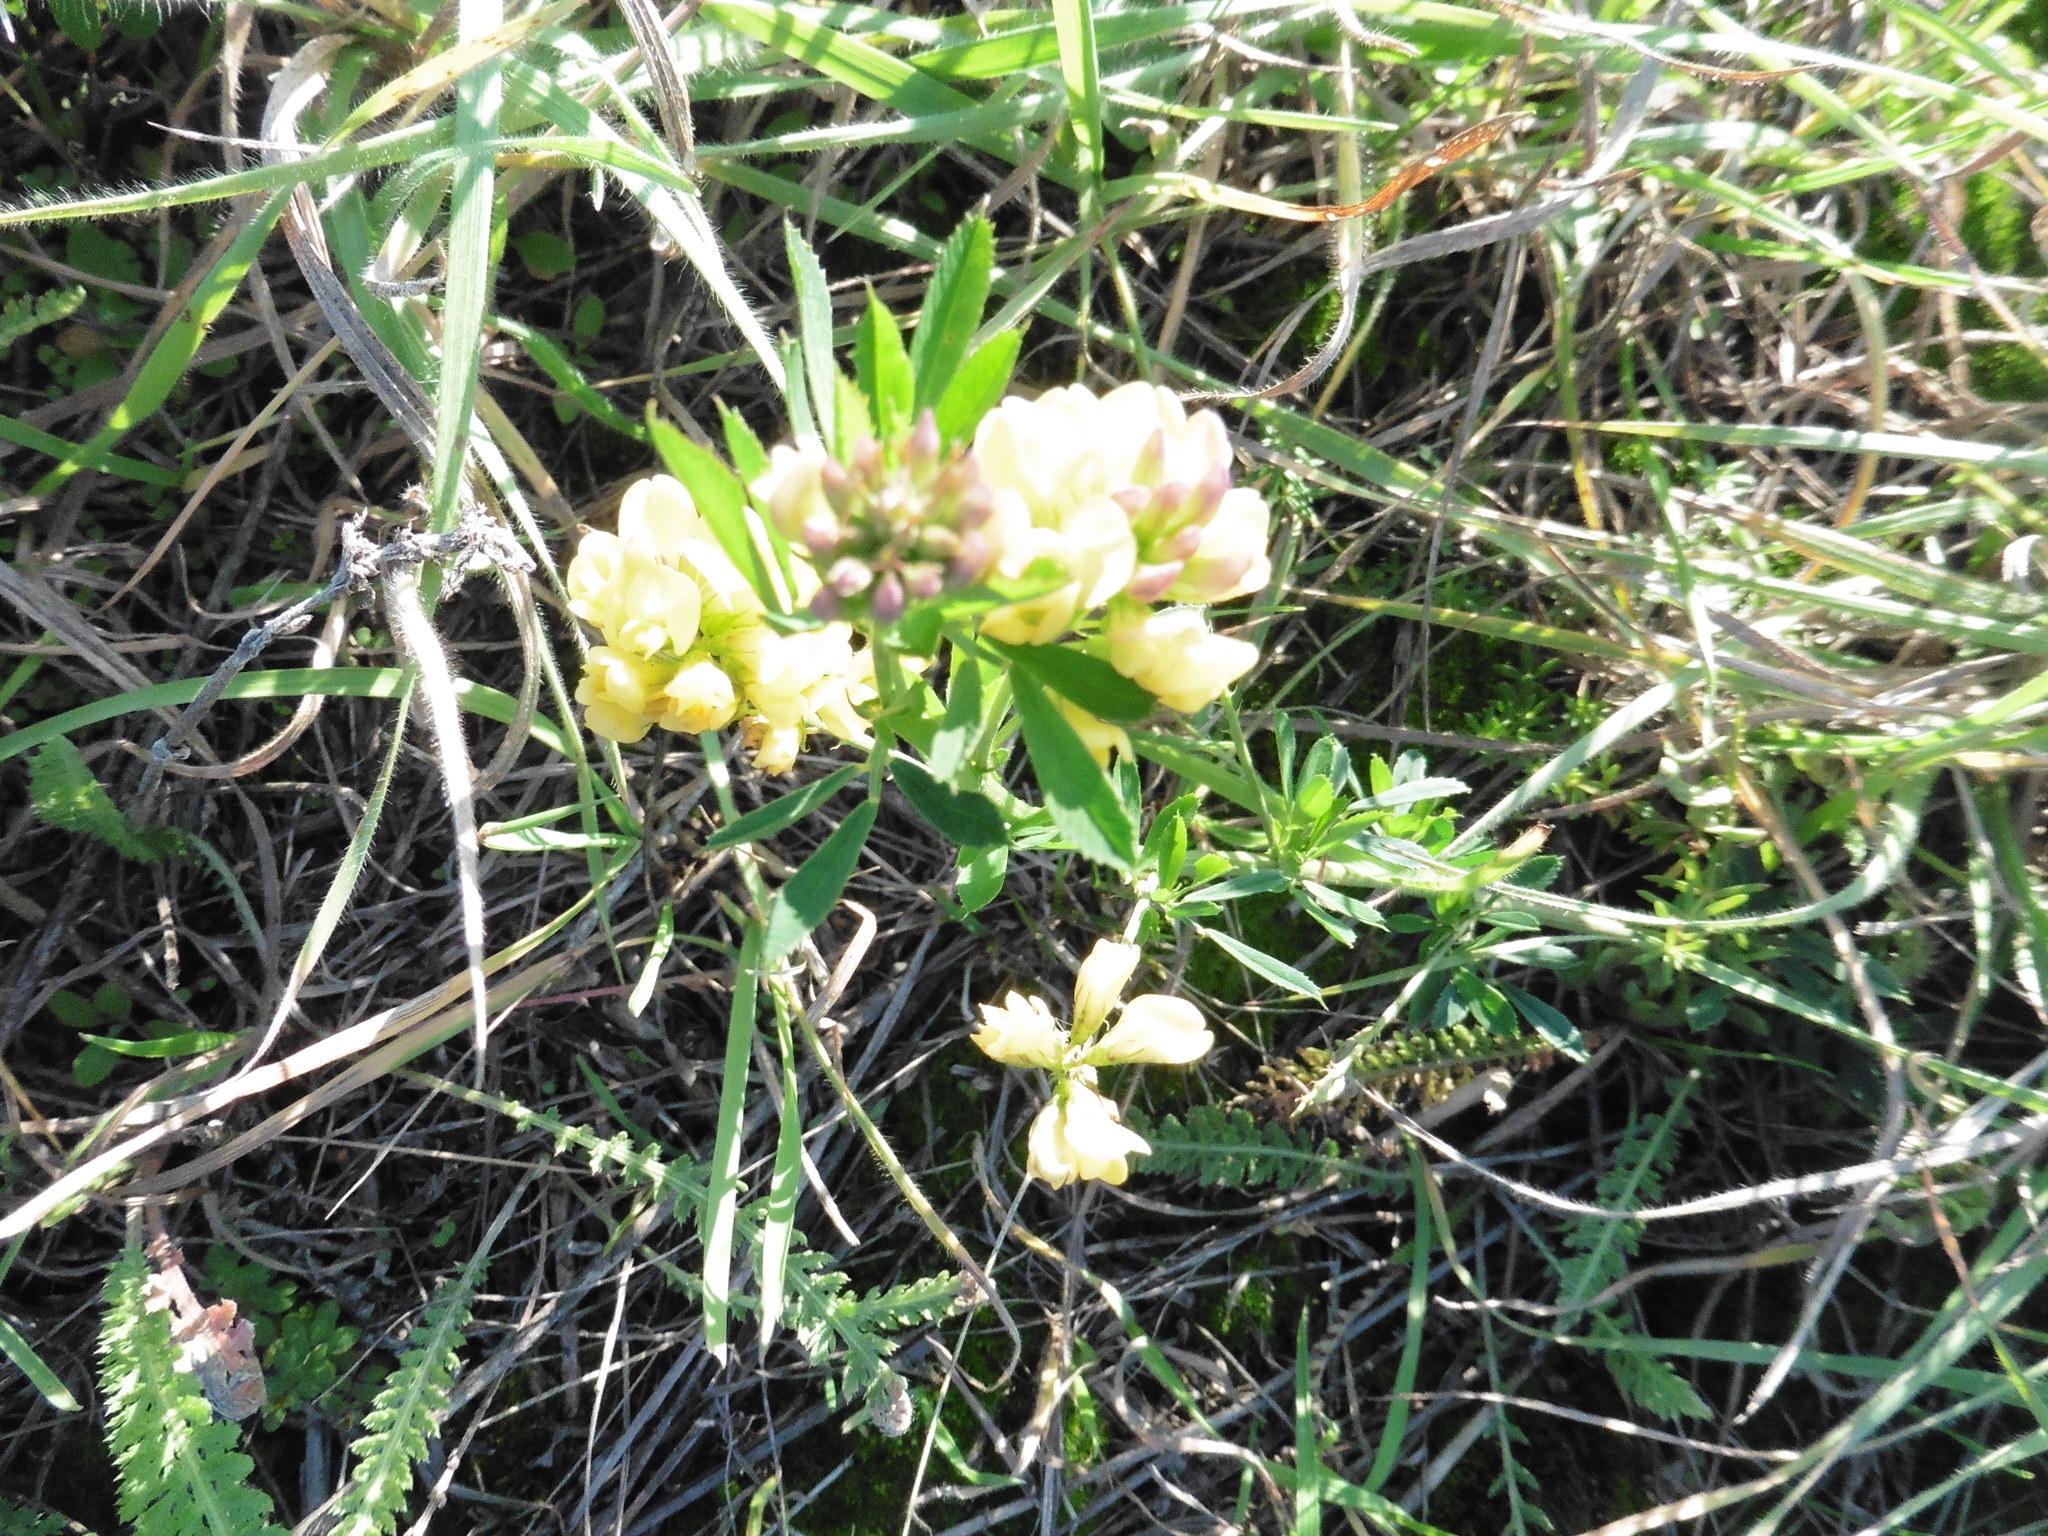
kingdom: Plantae
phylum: Tracheophyta
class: Magnoliopsida
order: Fabales
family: Fabaceae
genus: Medicago
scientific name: Medicago varia
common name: Sand lucerne
